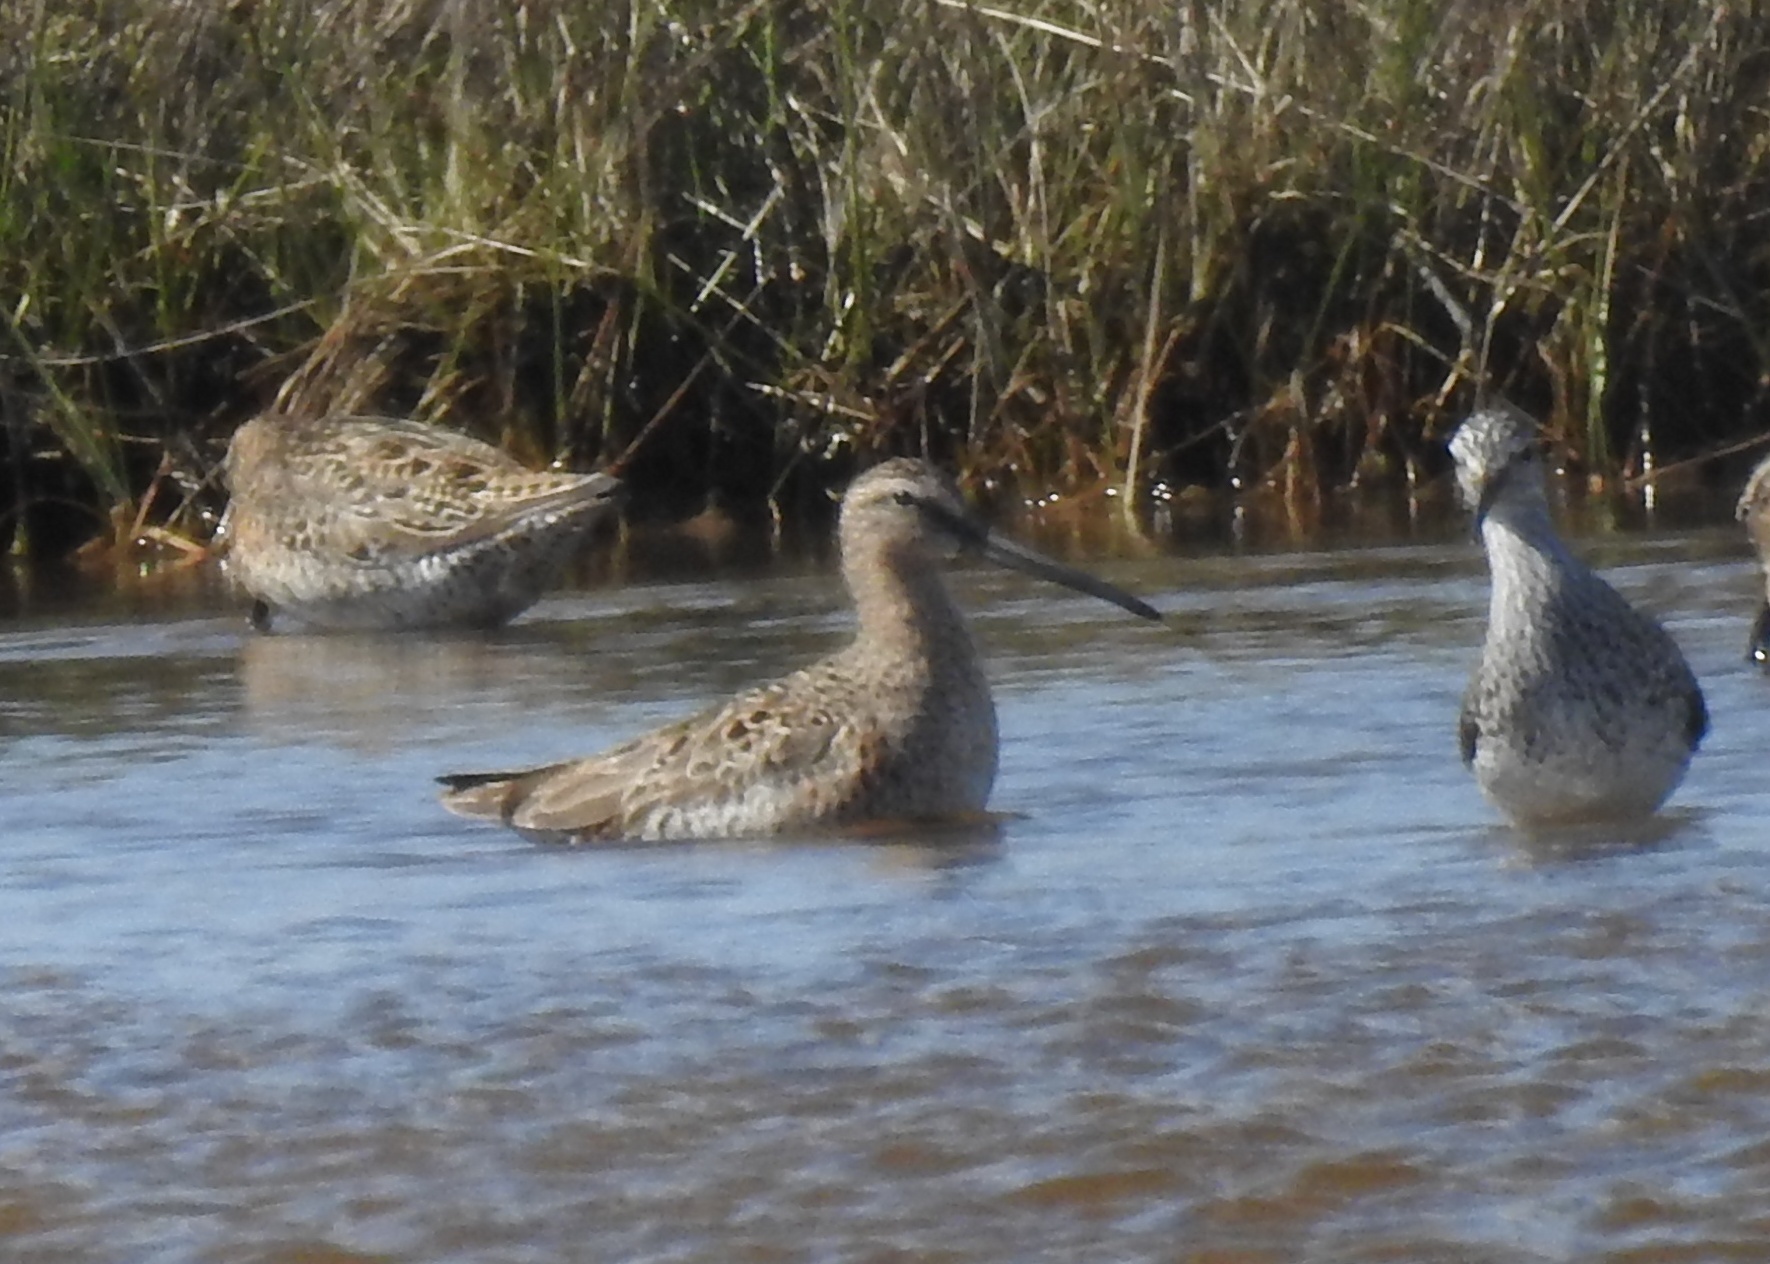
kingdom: Animalia
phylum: Chordata
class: Aves
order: Charadriiformes
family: Scolopacidae
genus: Limnodromus
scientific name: Limnodromus griseus
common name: Short-billed dowitcher
